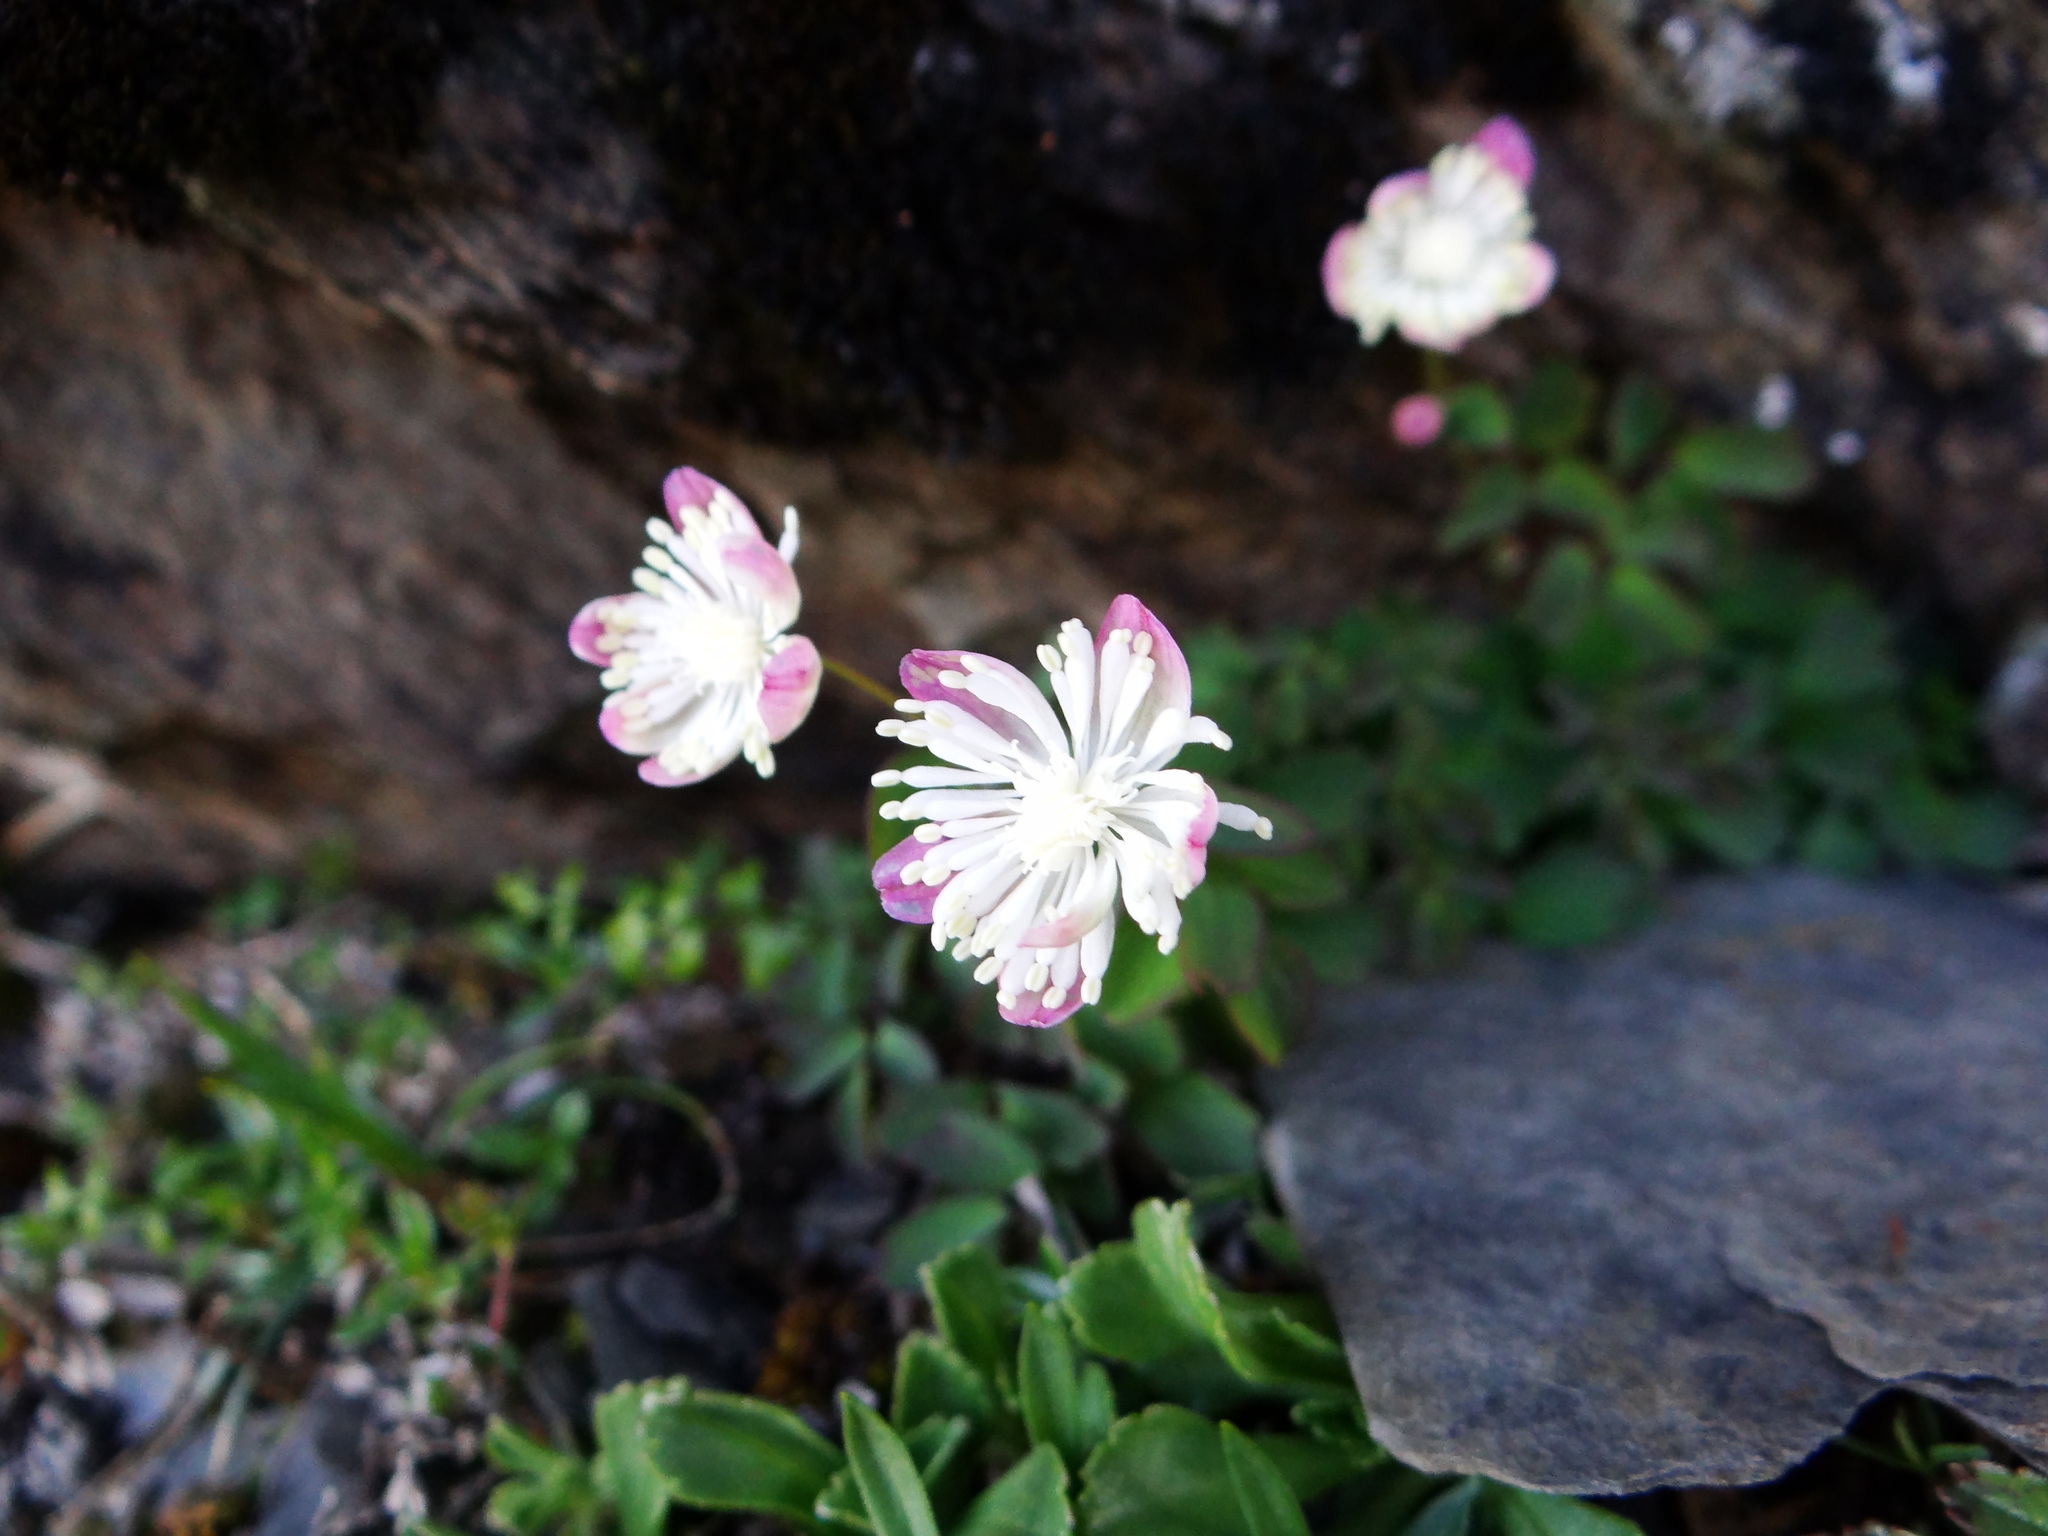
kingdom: Plantae
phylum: Tracheophyta
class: Magnoliopsida
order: Ranunculales
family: Ranunculaceae
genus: Thalictrum
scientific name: Thalictrum rubescens
